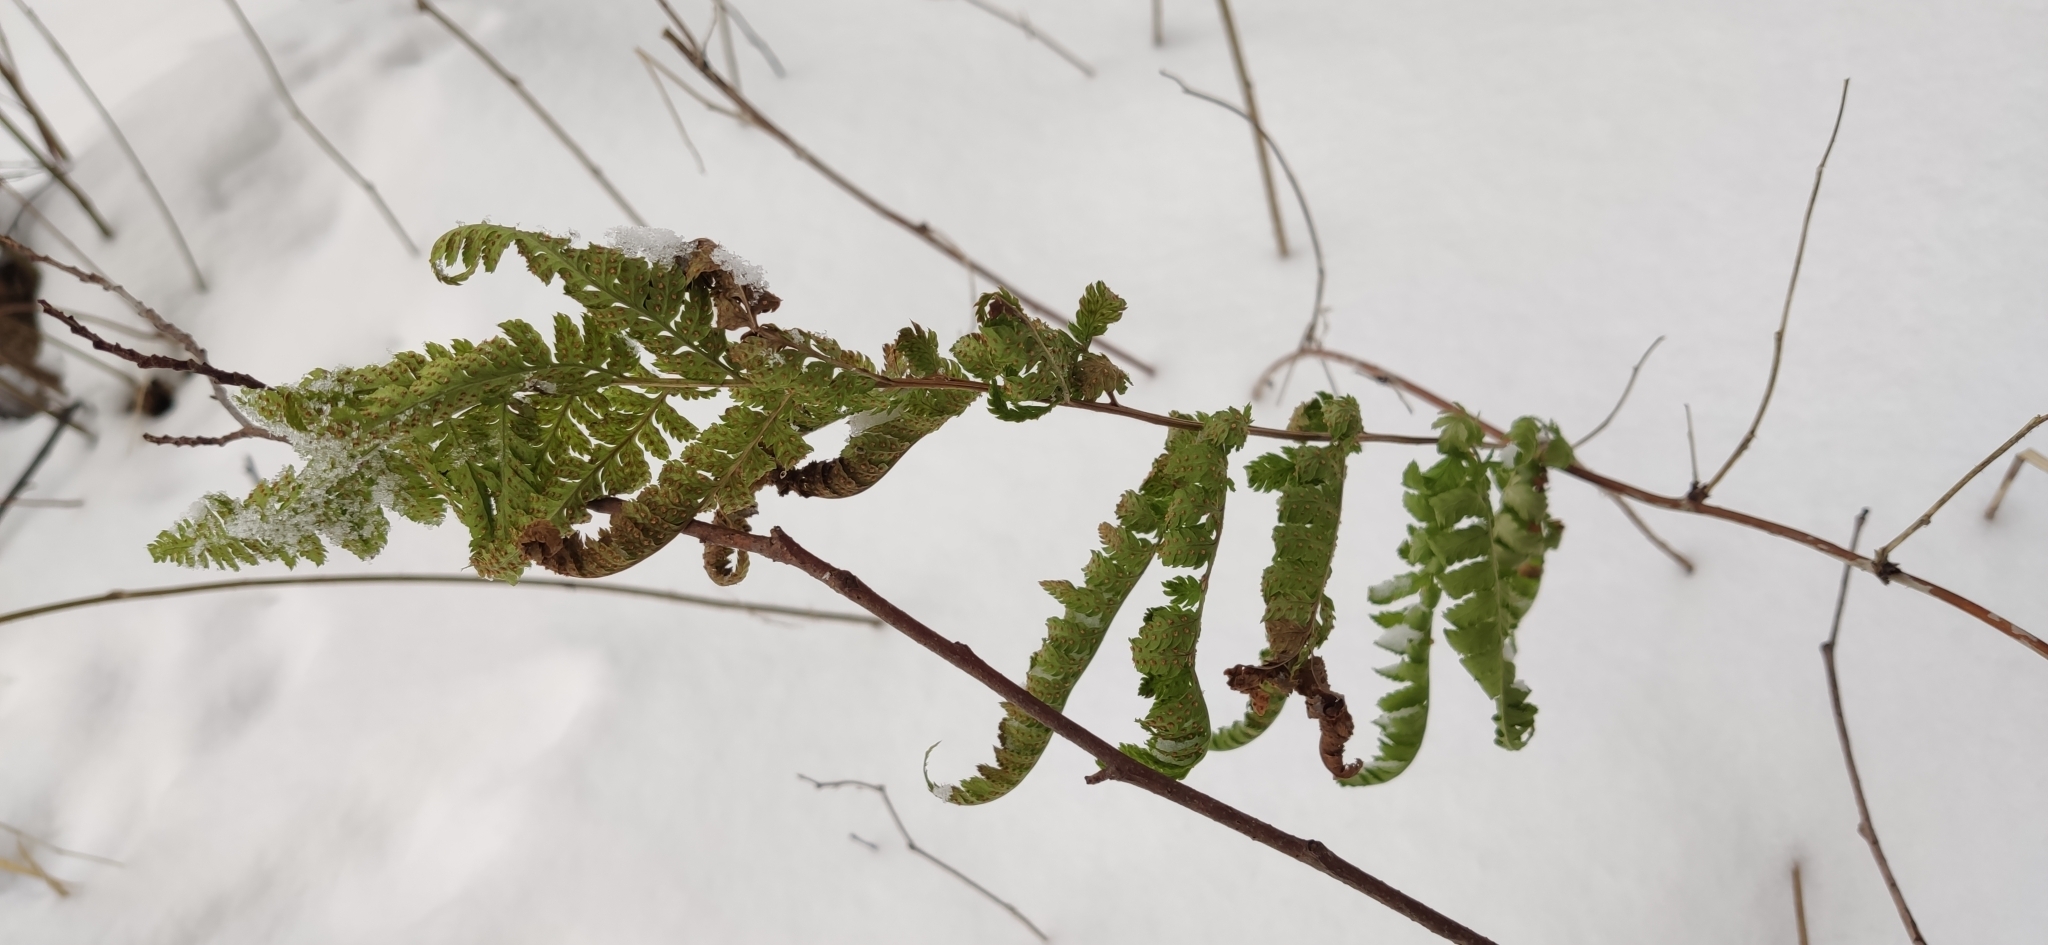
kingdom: Plantae
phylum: Tracheophyta
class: Polypodiopsida
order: Polypodiales
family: Dryopteridaceae
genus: Dryopteris
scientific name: Dryopteris carthusiana
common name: Narrow buckler-fern
